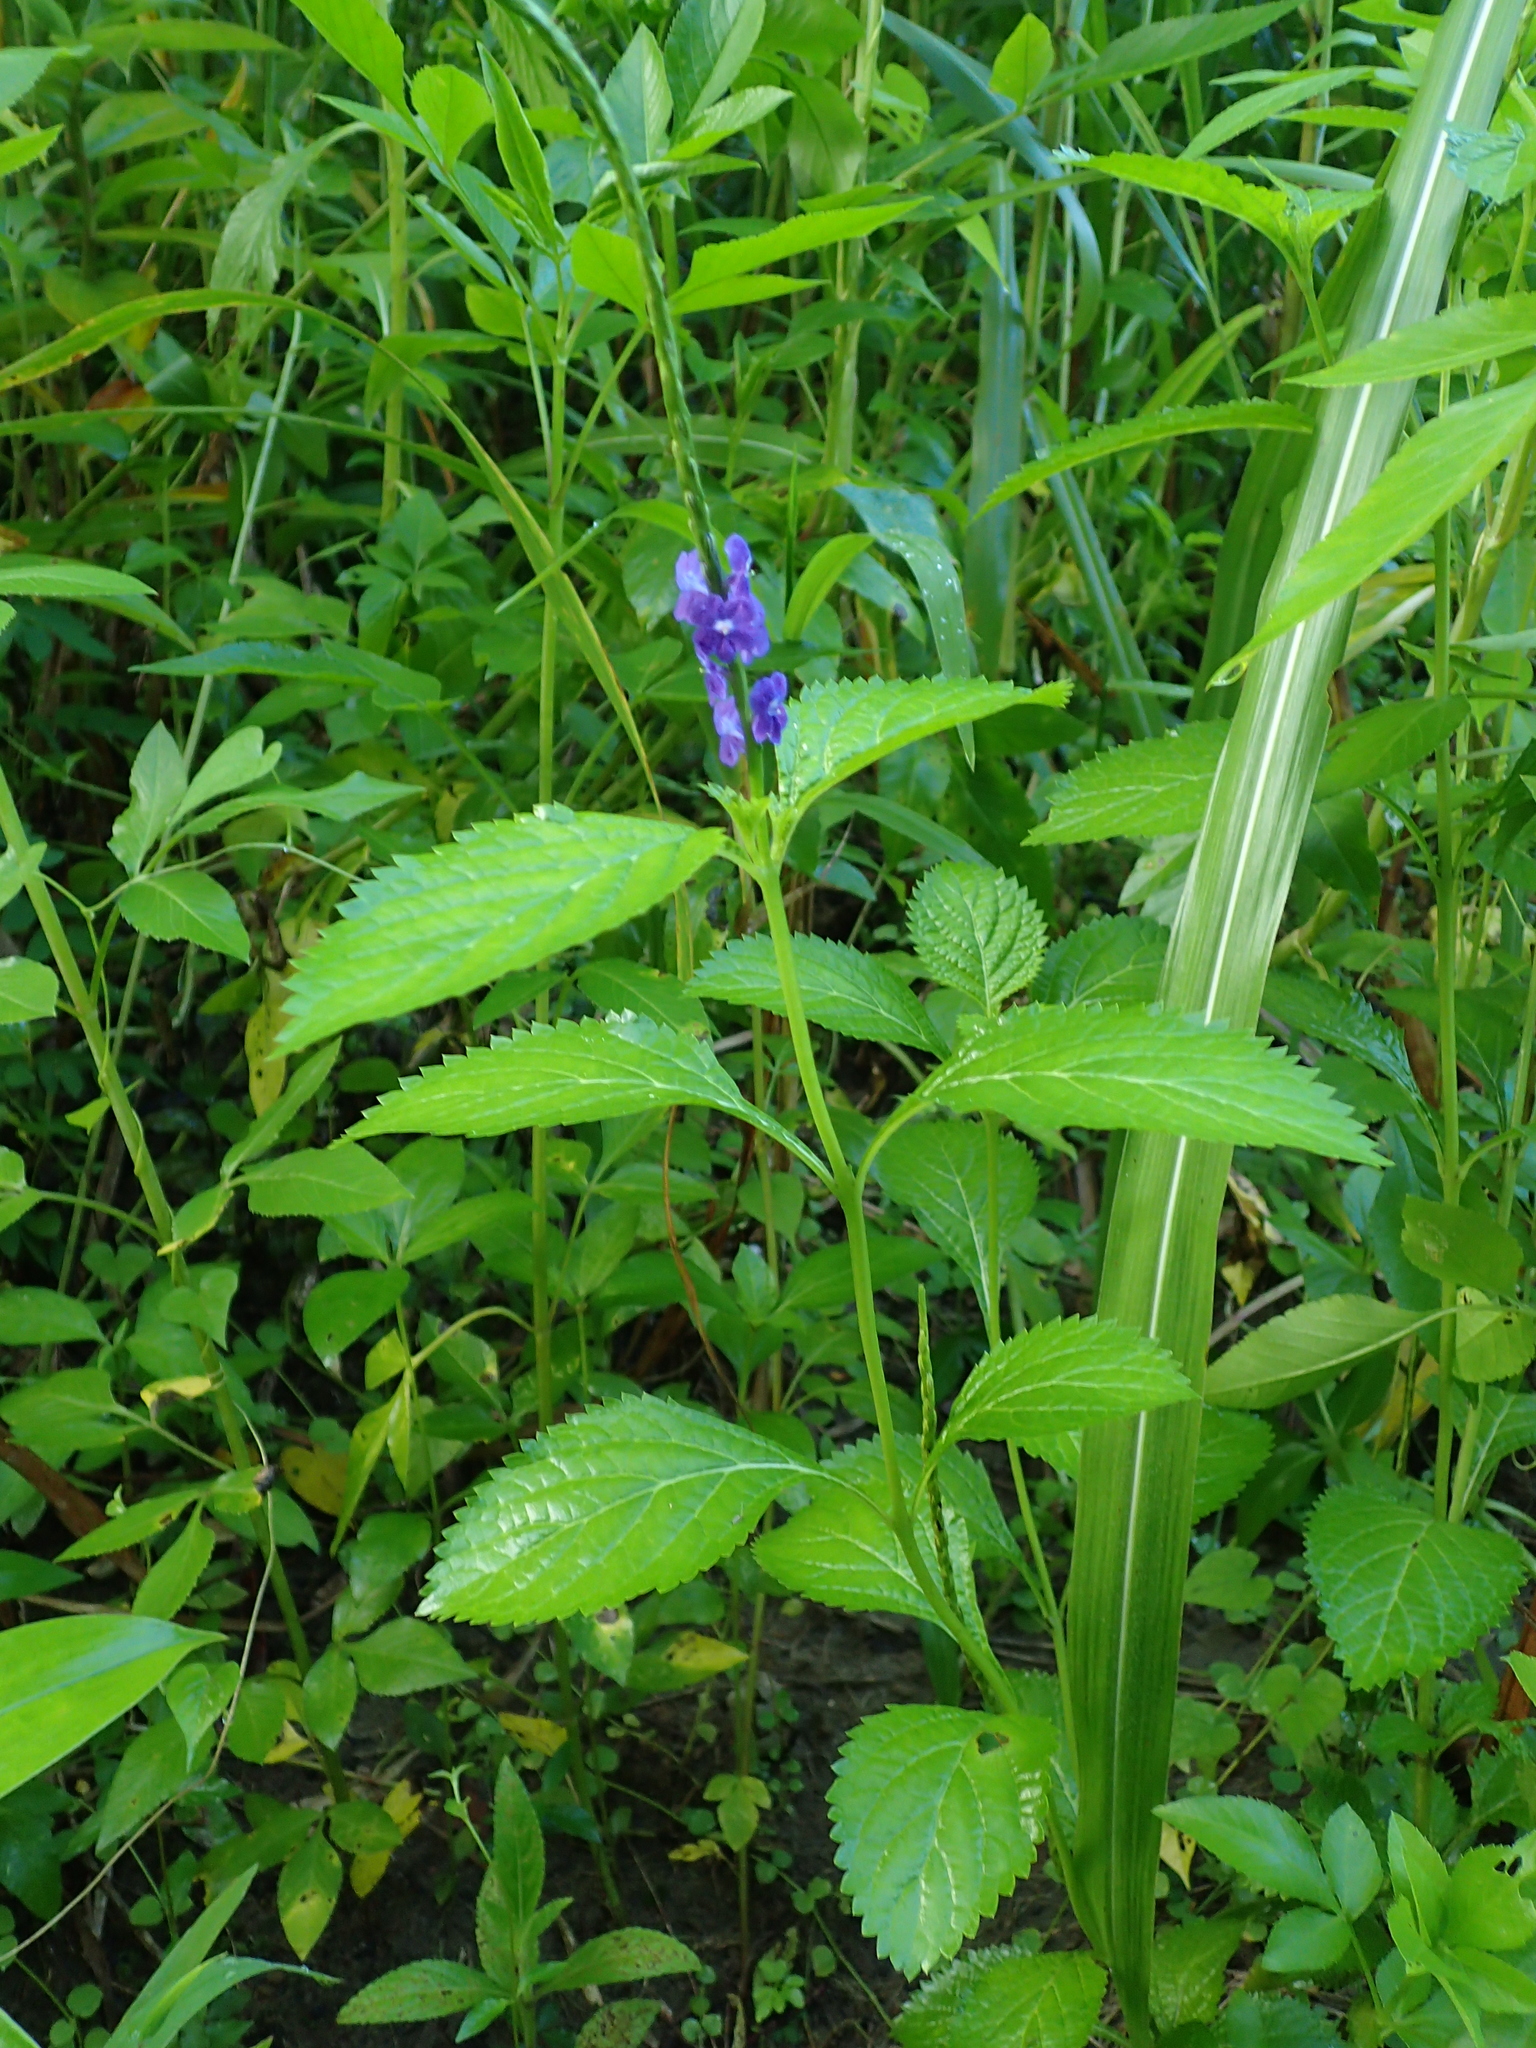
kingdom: Plantae
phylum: Tracheophyta
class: Magnoliopsida
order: Lamiales
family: Verbenaceae
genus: Stachytarpheta
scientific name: Stachytarpheta urticifolia
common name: Nettleleaf velvetberry
